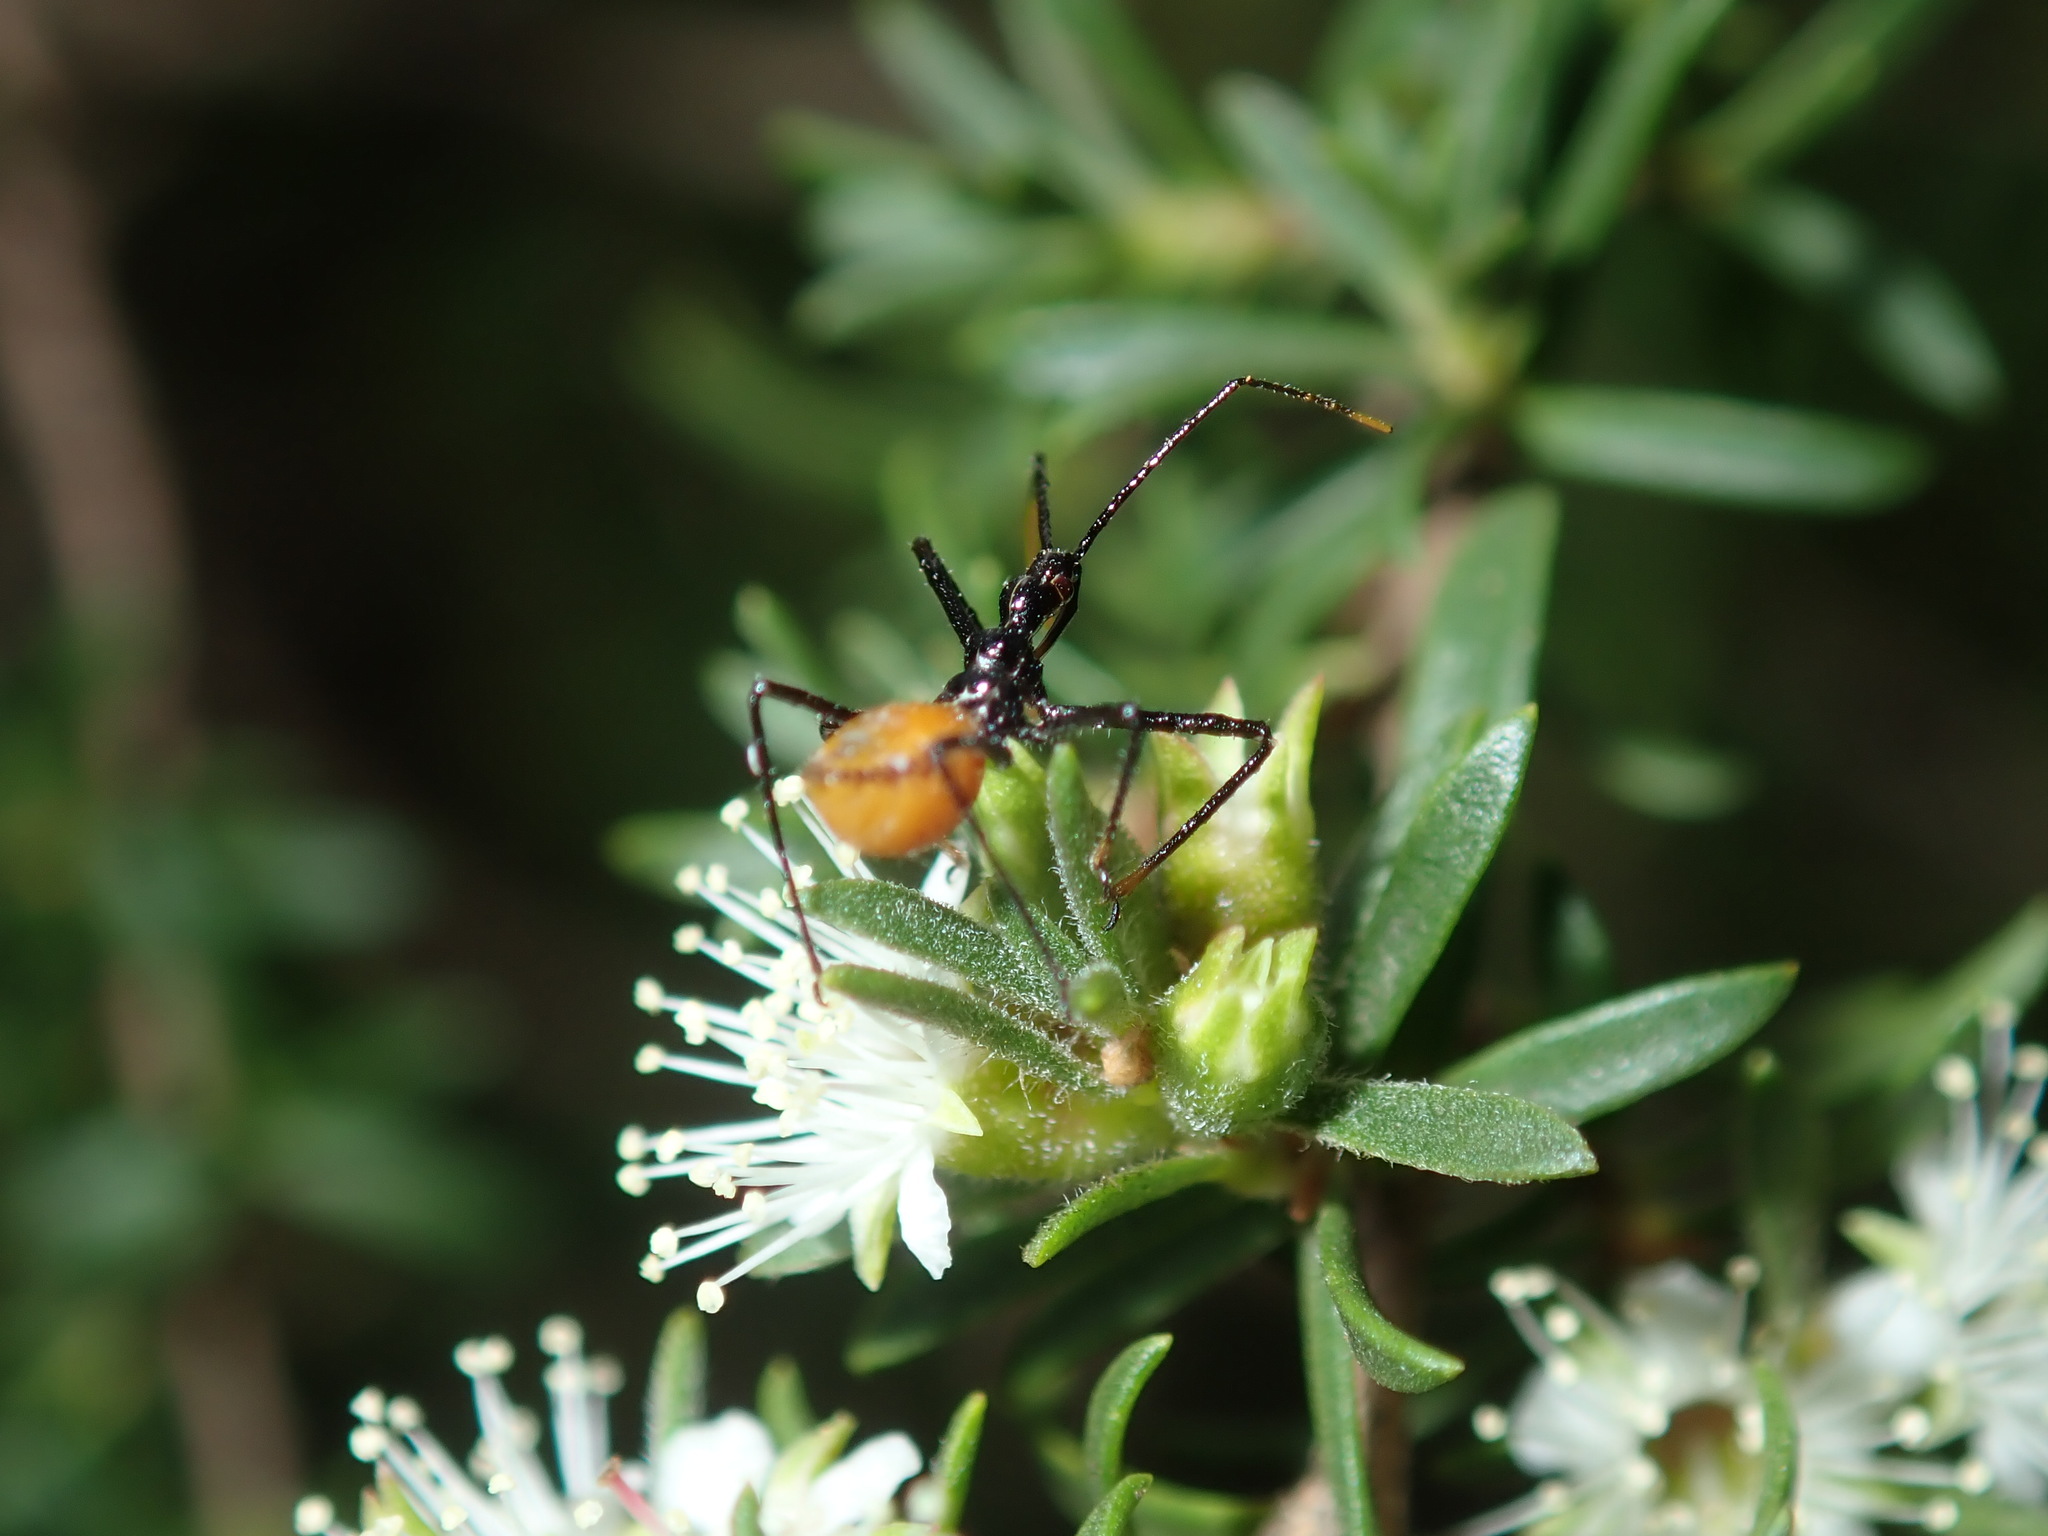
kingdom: Animalia
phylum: Arthropoda
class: Insecta
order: Hemiptera
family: Reduviidae
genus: Pristhesancus
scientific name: Pristhesancus plagipennis
